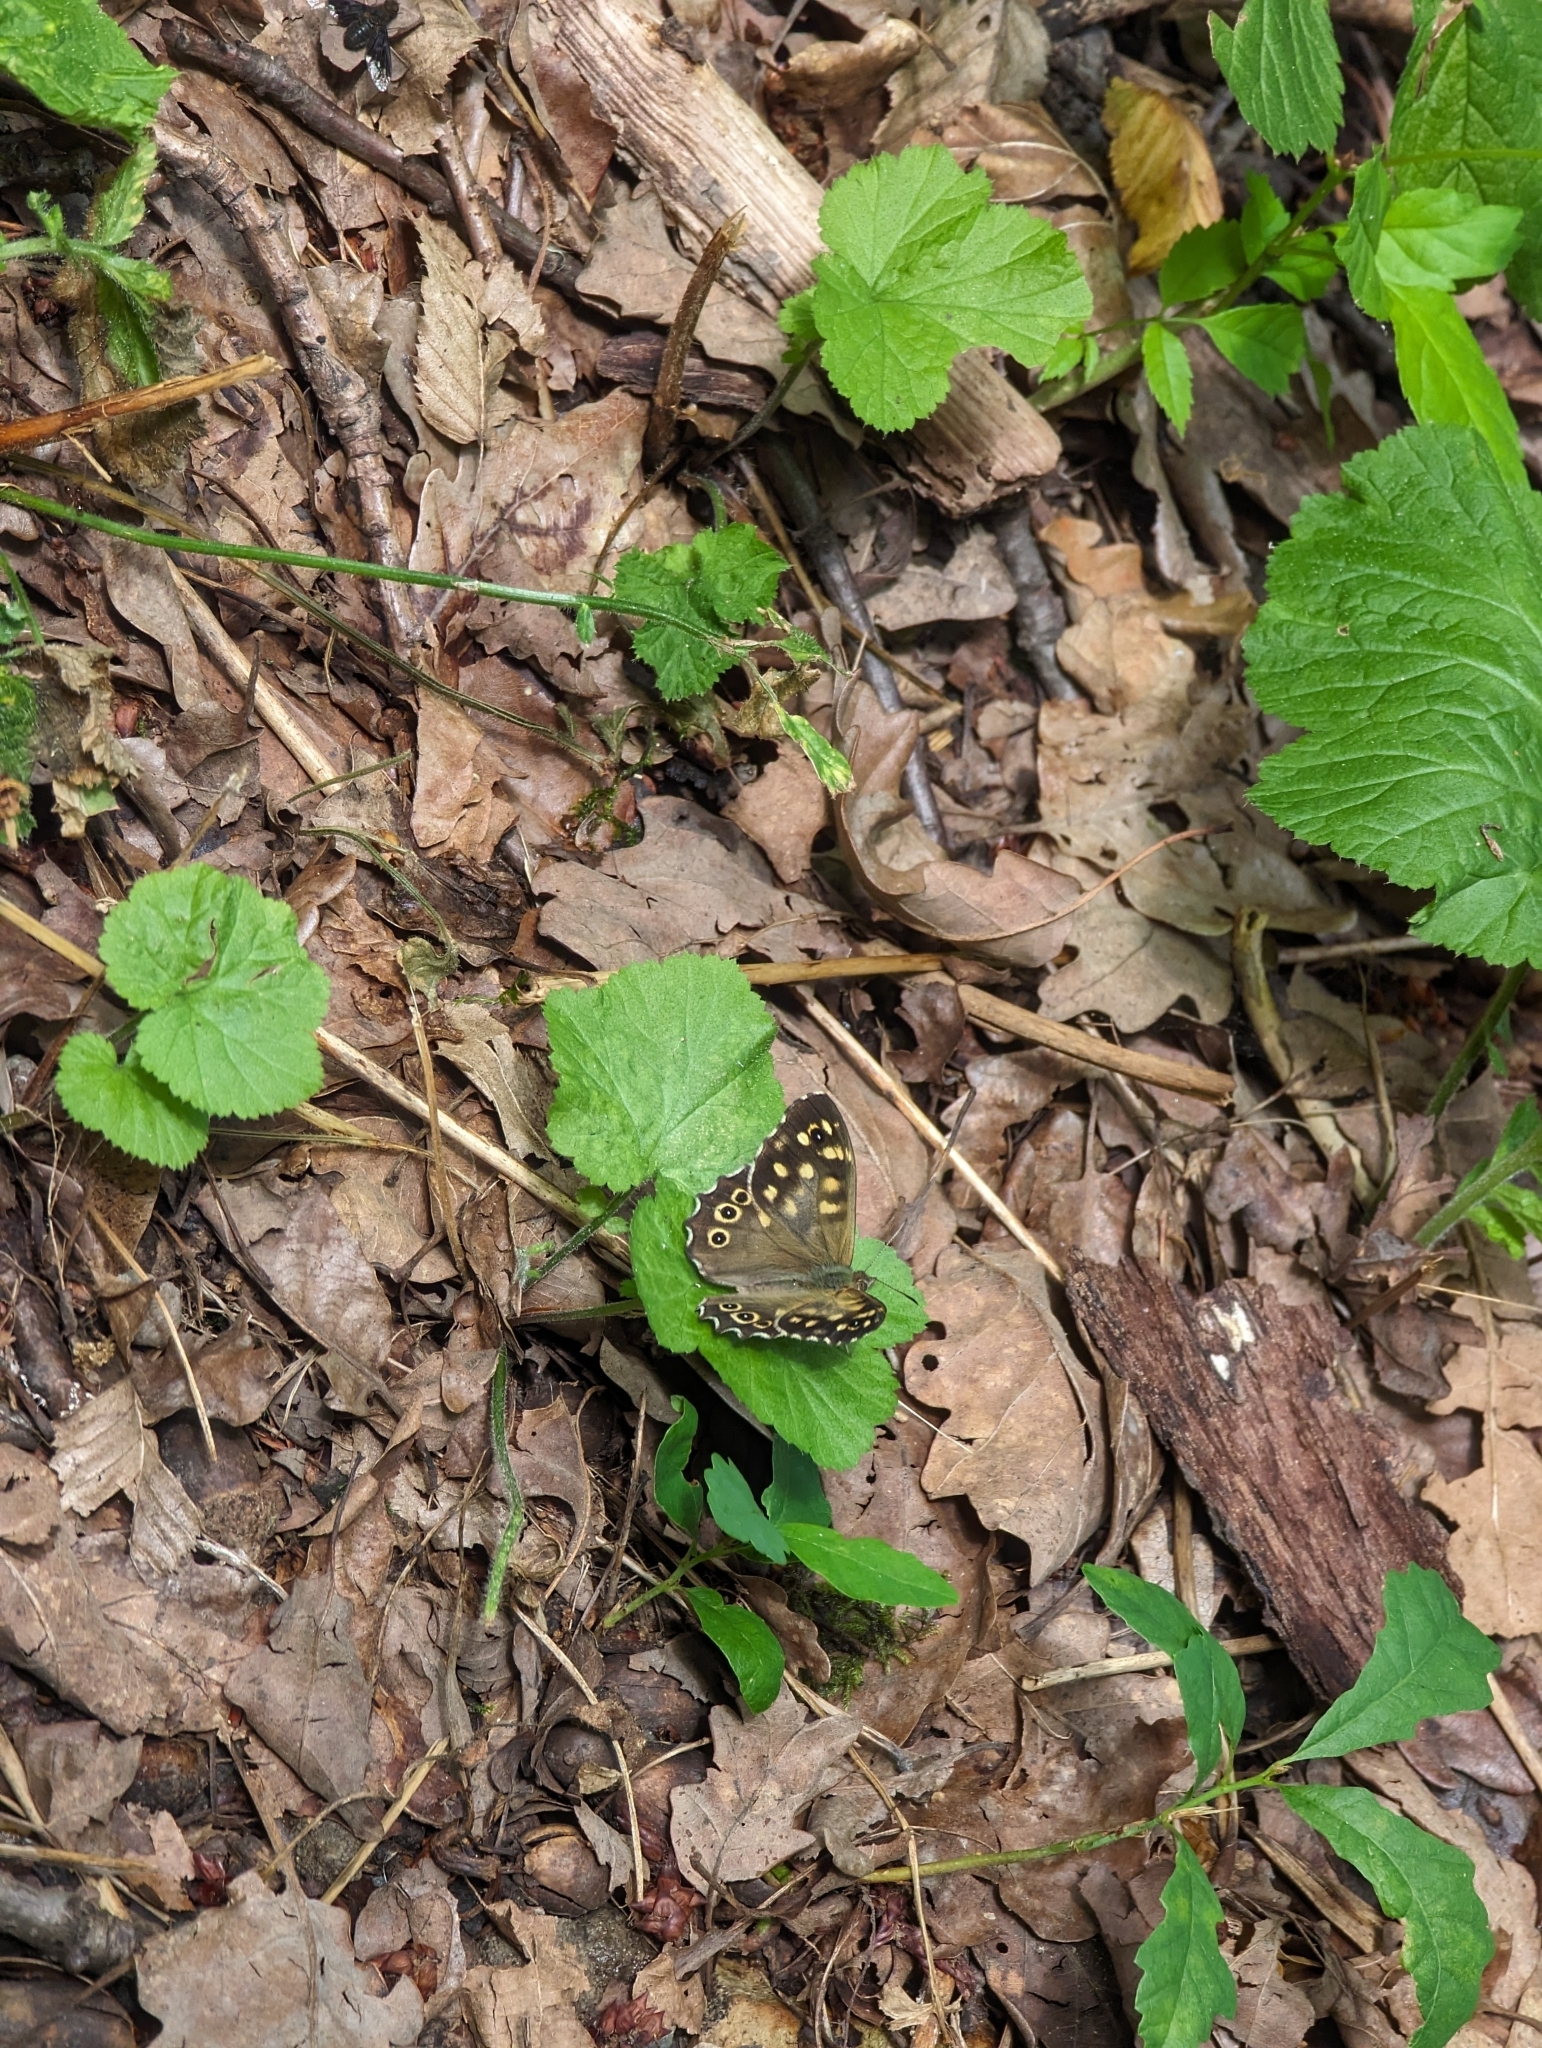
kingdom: Animalia
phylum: Arthropoda
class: Insecta
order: Lepidoptera
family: Nymphalidae
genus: Pararge
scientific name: Pararge aegeria
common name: Speckled wood
